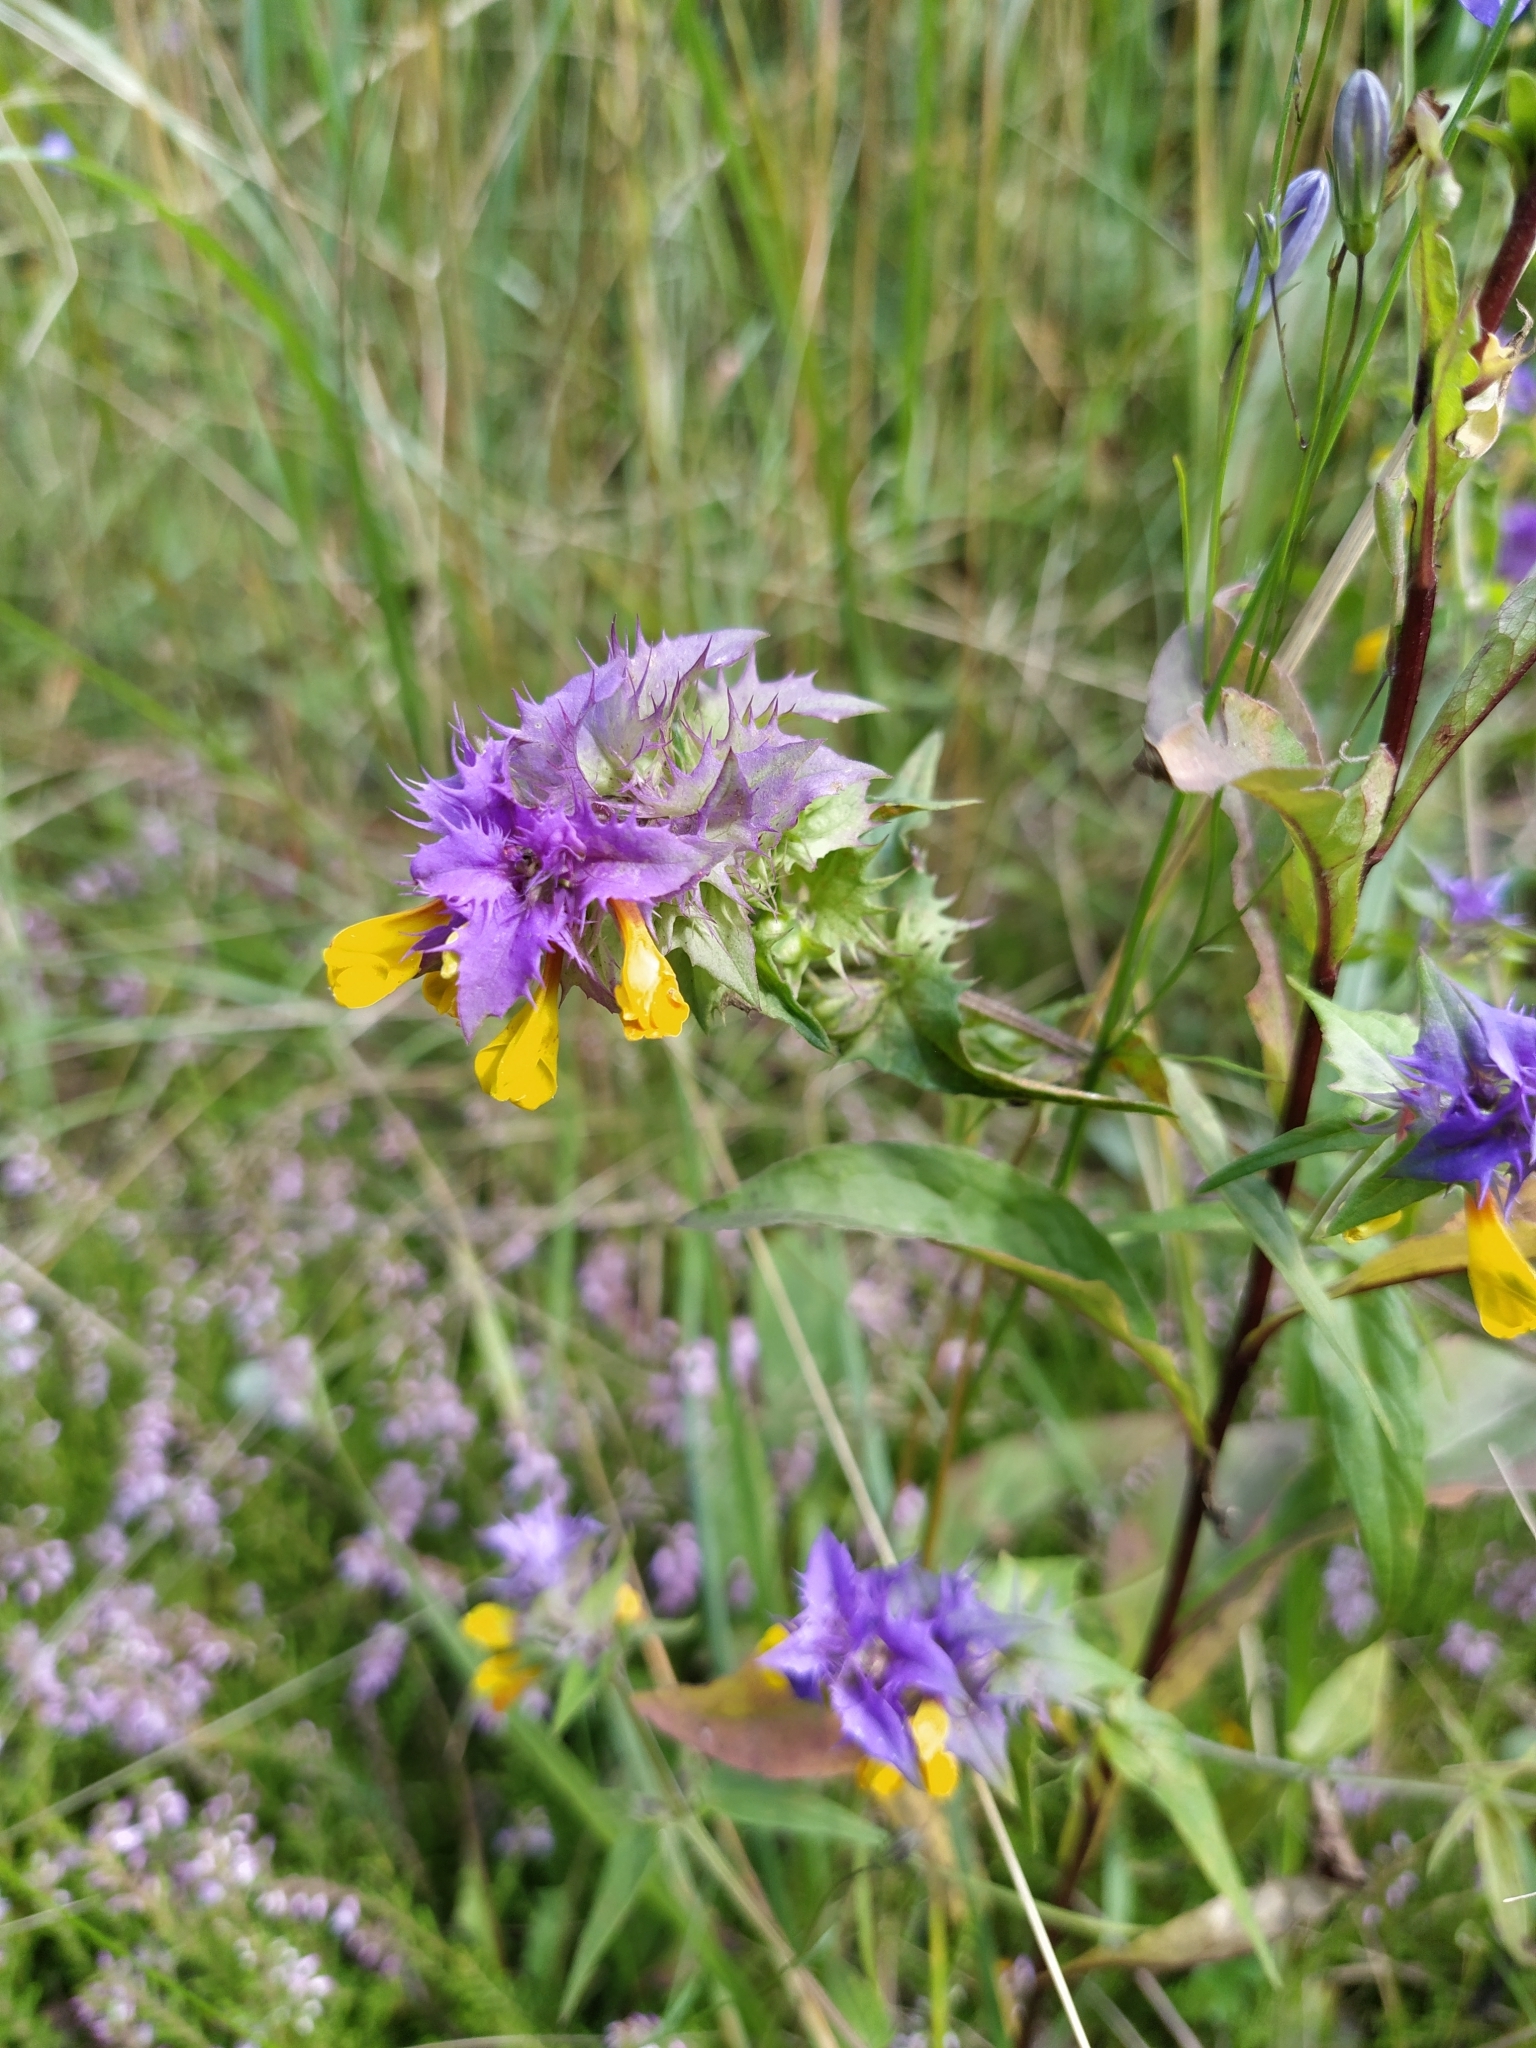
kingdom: Plantae
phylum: Tracheophyta
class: Magnoliopsida
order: Lamiales
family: Orobanchaceae
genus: Melampyrum
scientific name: Melampyrum nemorosum
